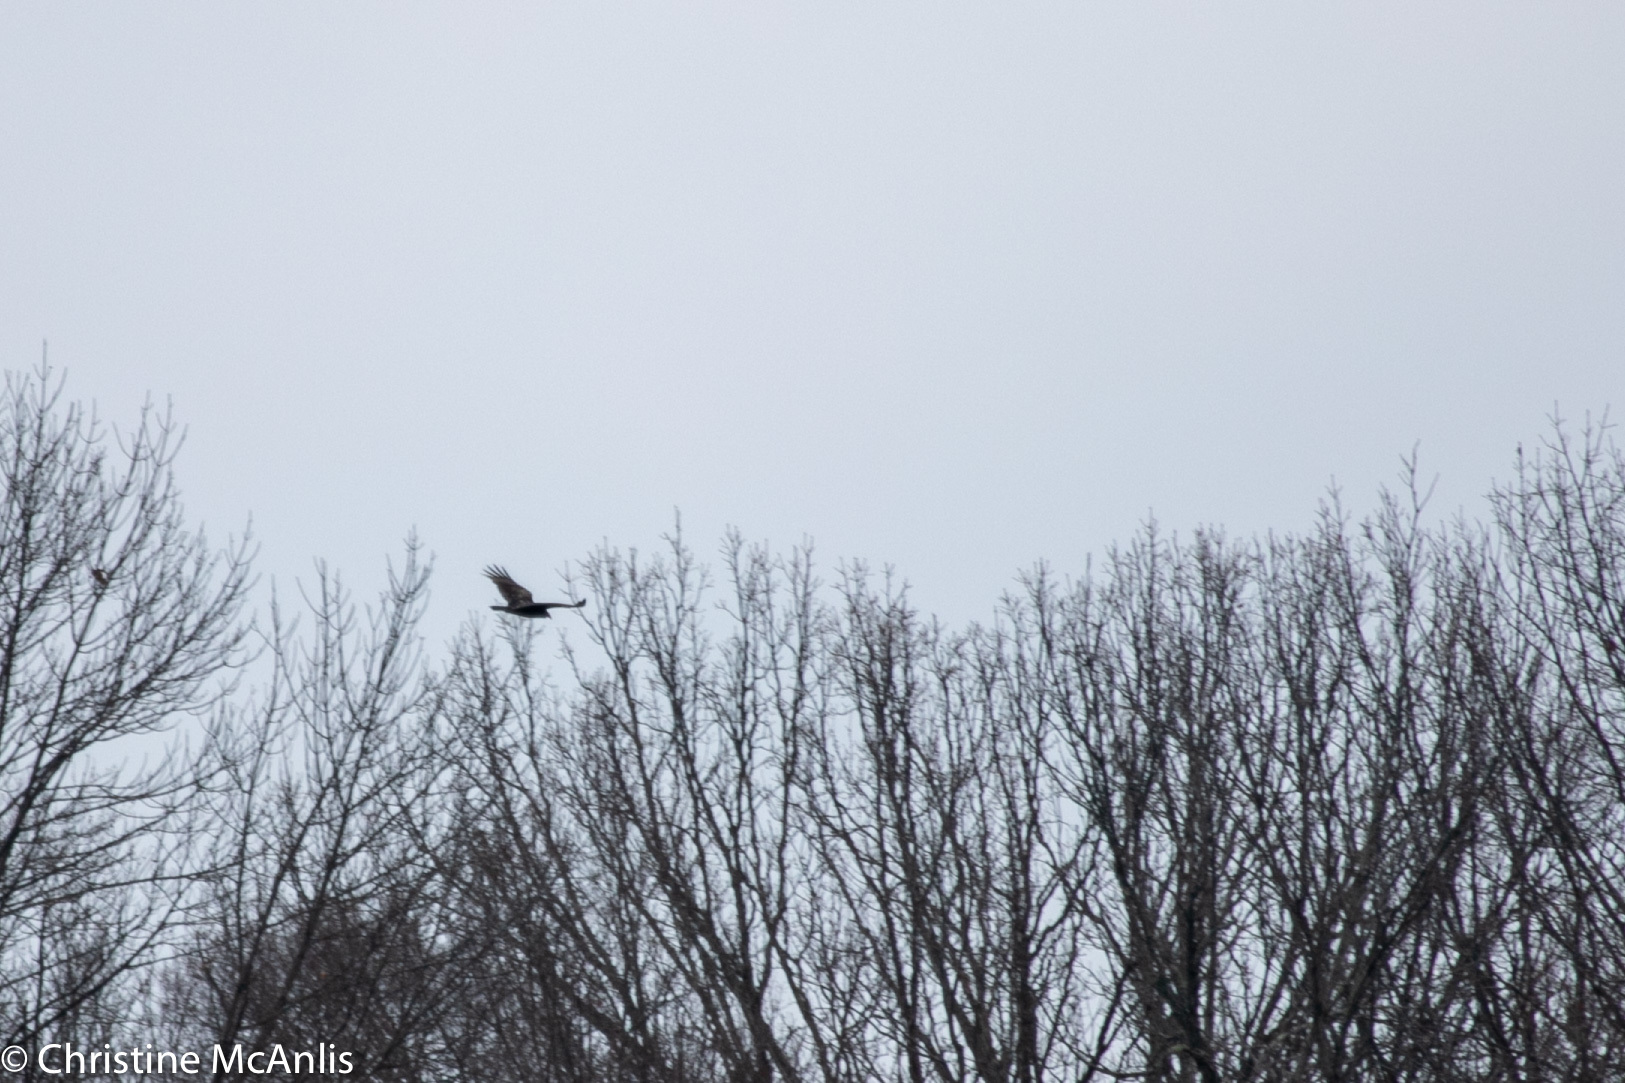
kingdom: Animalia
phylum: Chordata
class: Aves
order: Accipitriformes
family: Cathartidae
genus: Cathartes
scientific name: Cathartes aura
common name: Turkey vulture
